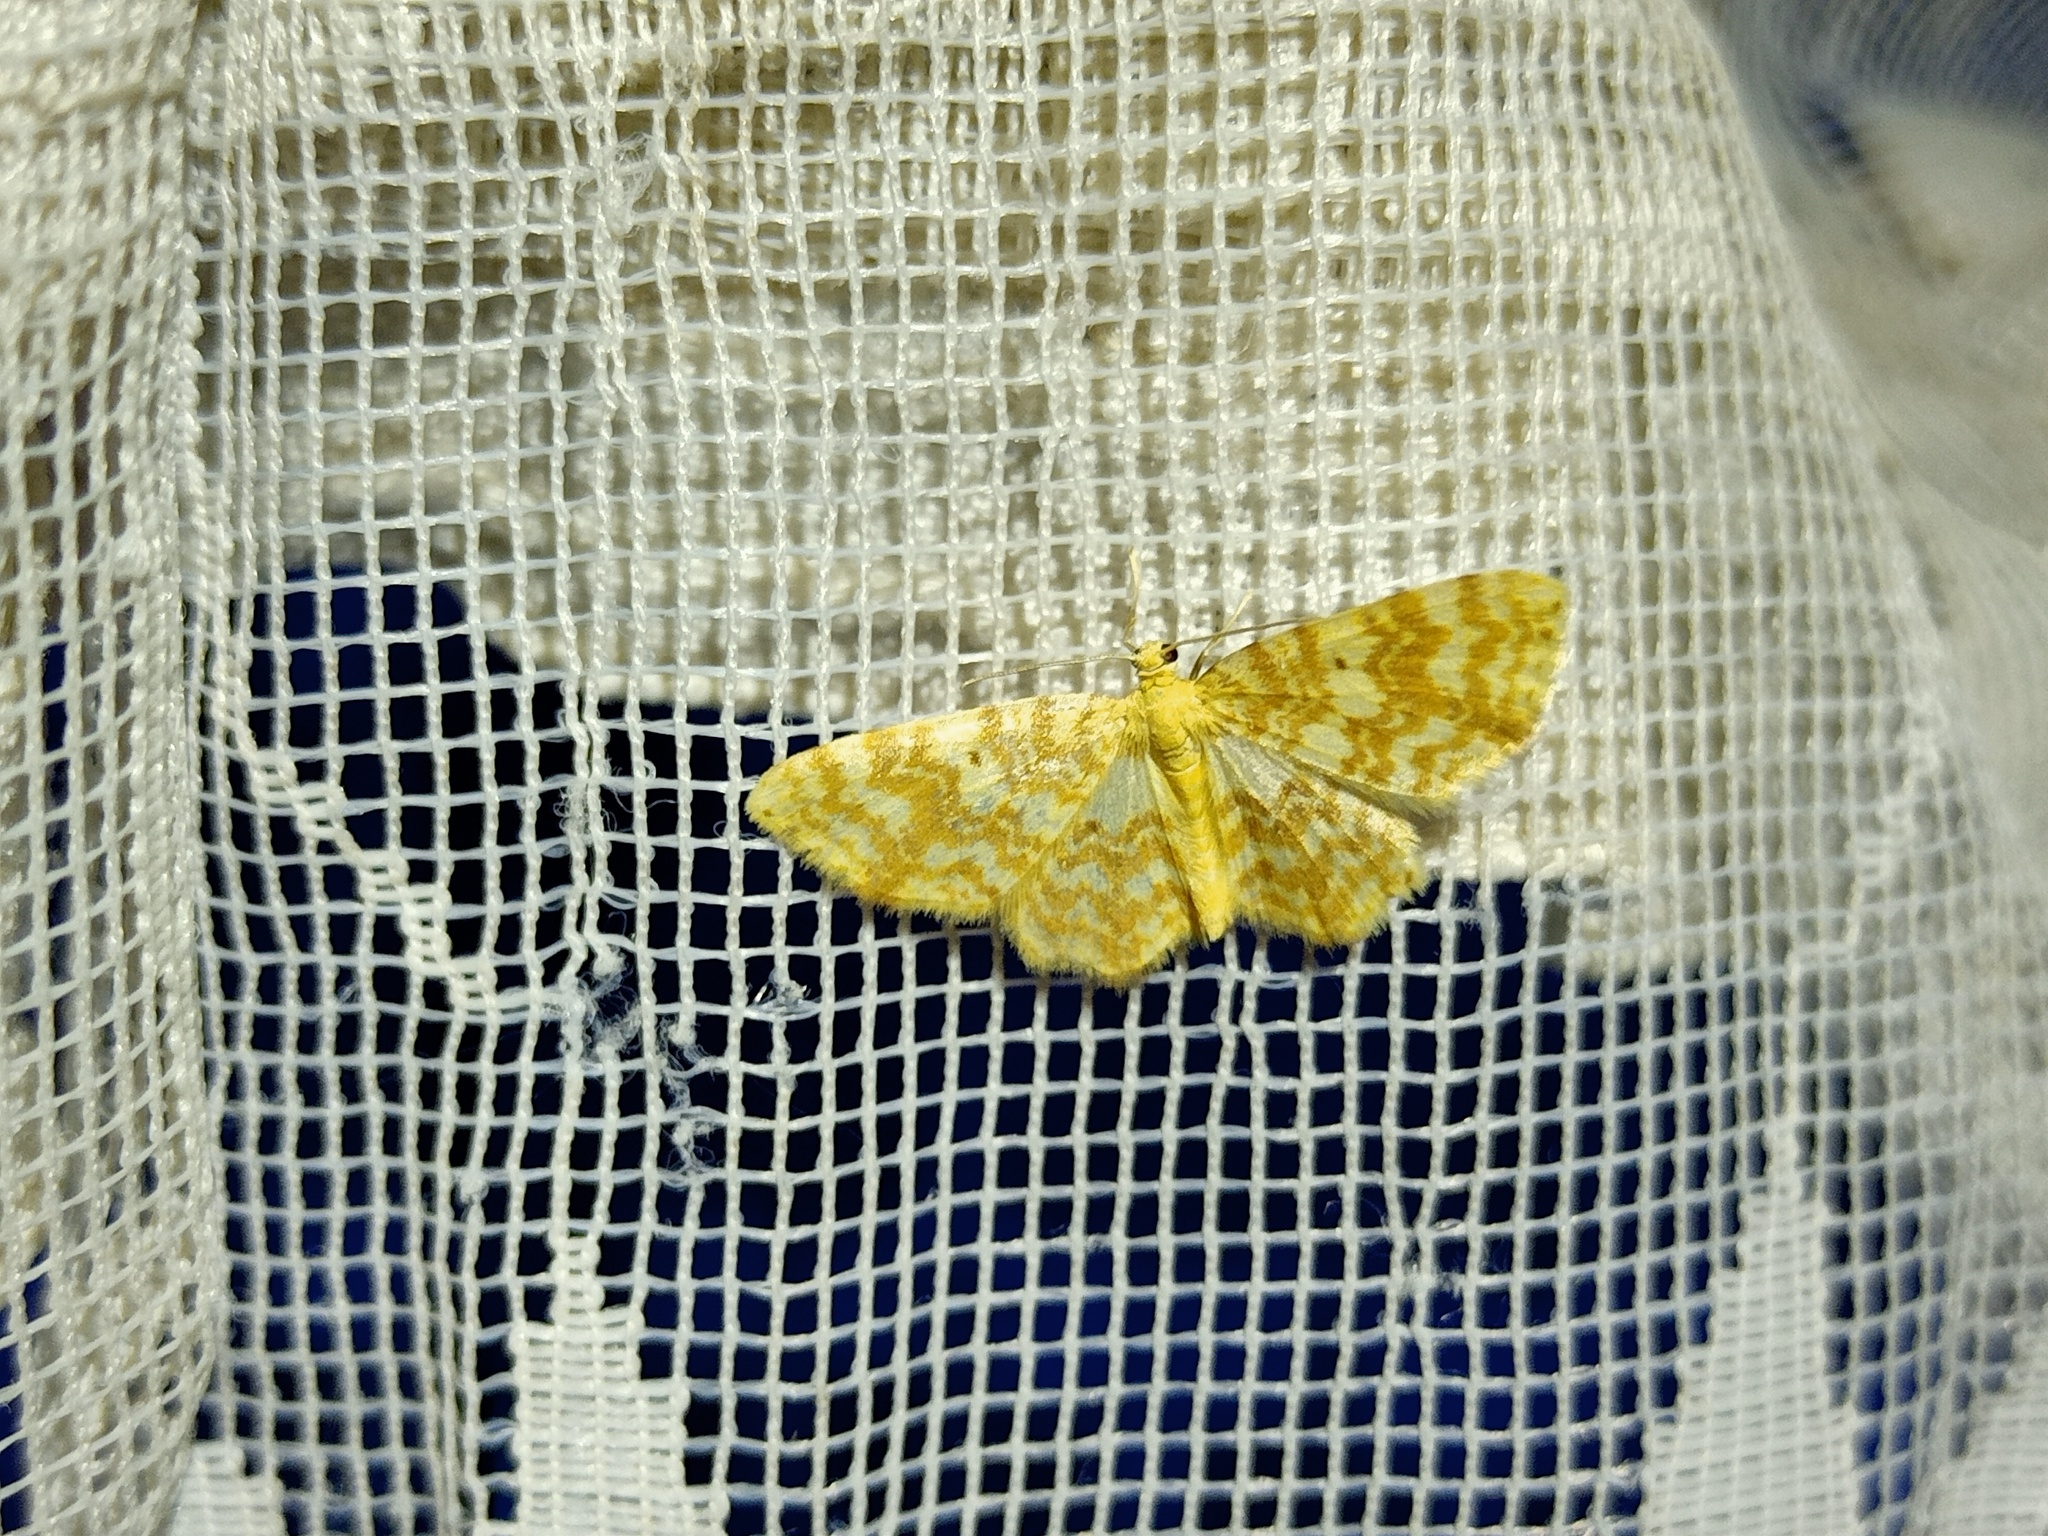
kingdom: Animalia
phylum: Arthropoda
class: Insecta
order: Lepidoptera
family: Geometridae
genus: Hydrelia
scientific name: Hydrelia flammeolaria
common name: Small yellow wave
